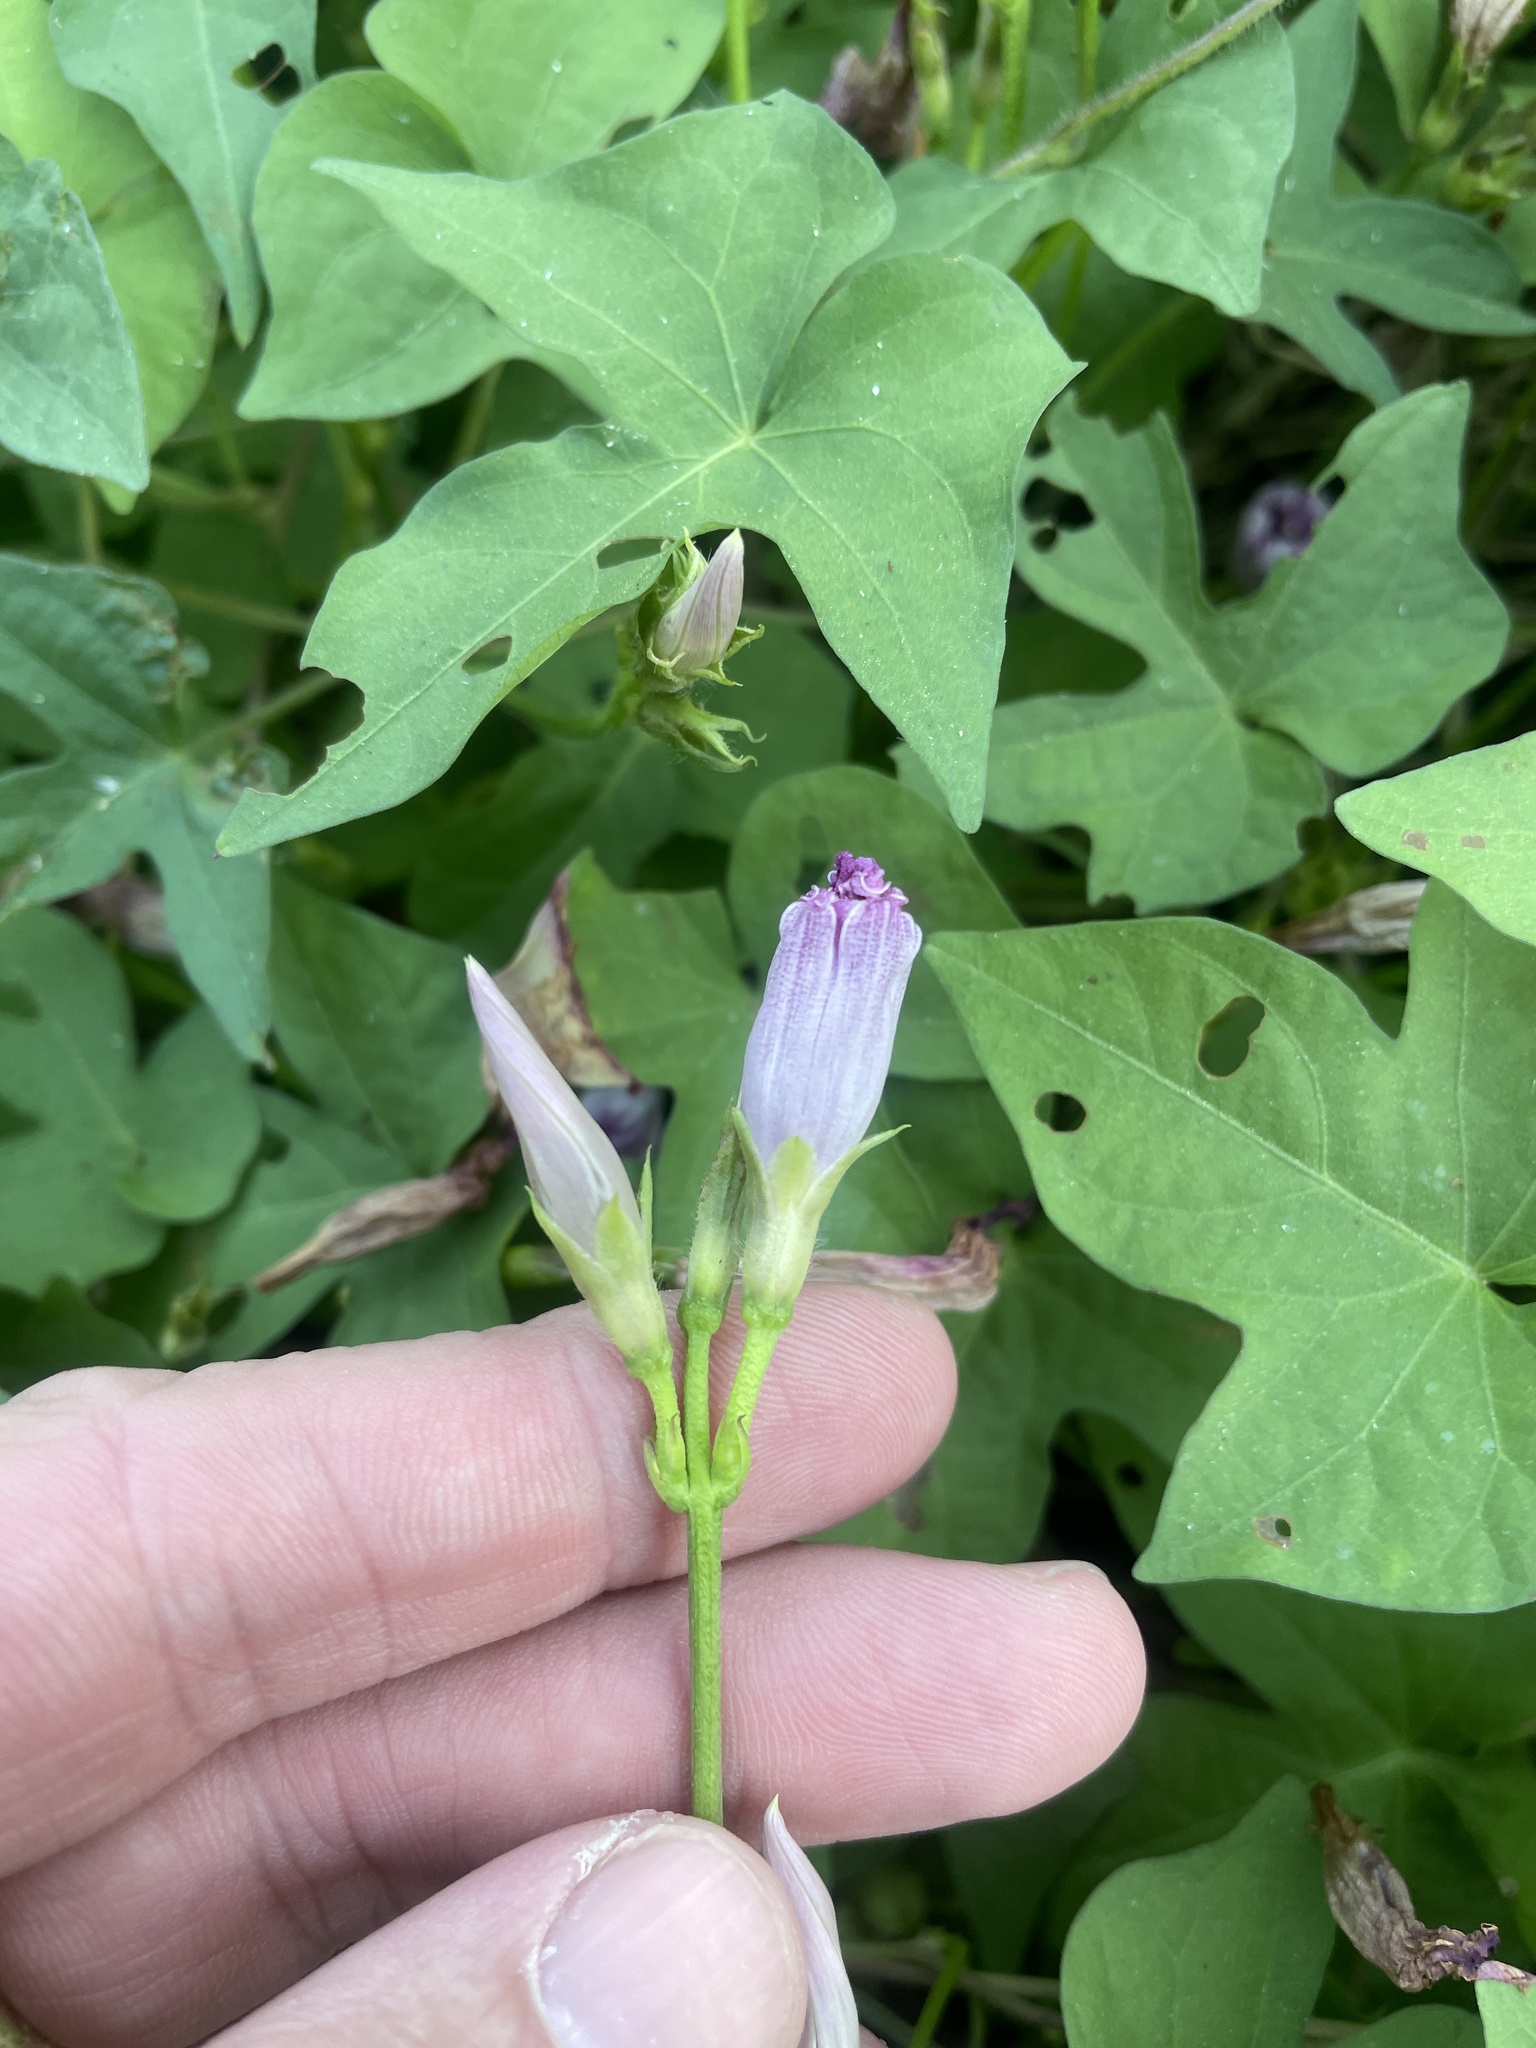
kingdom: Plantae
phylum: Tracheophyta
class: Magnoliopsida
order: Solanales
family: Convolvulaceae
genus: Ipomoea
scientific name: Ipomoea cordatotriloba
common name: Cotton morning glory
